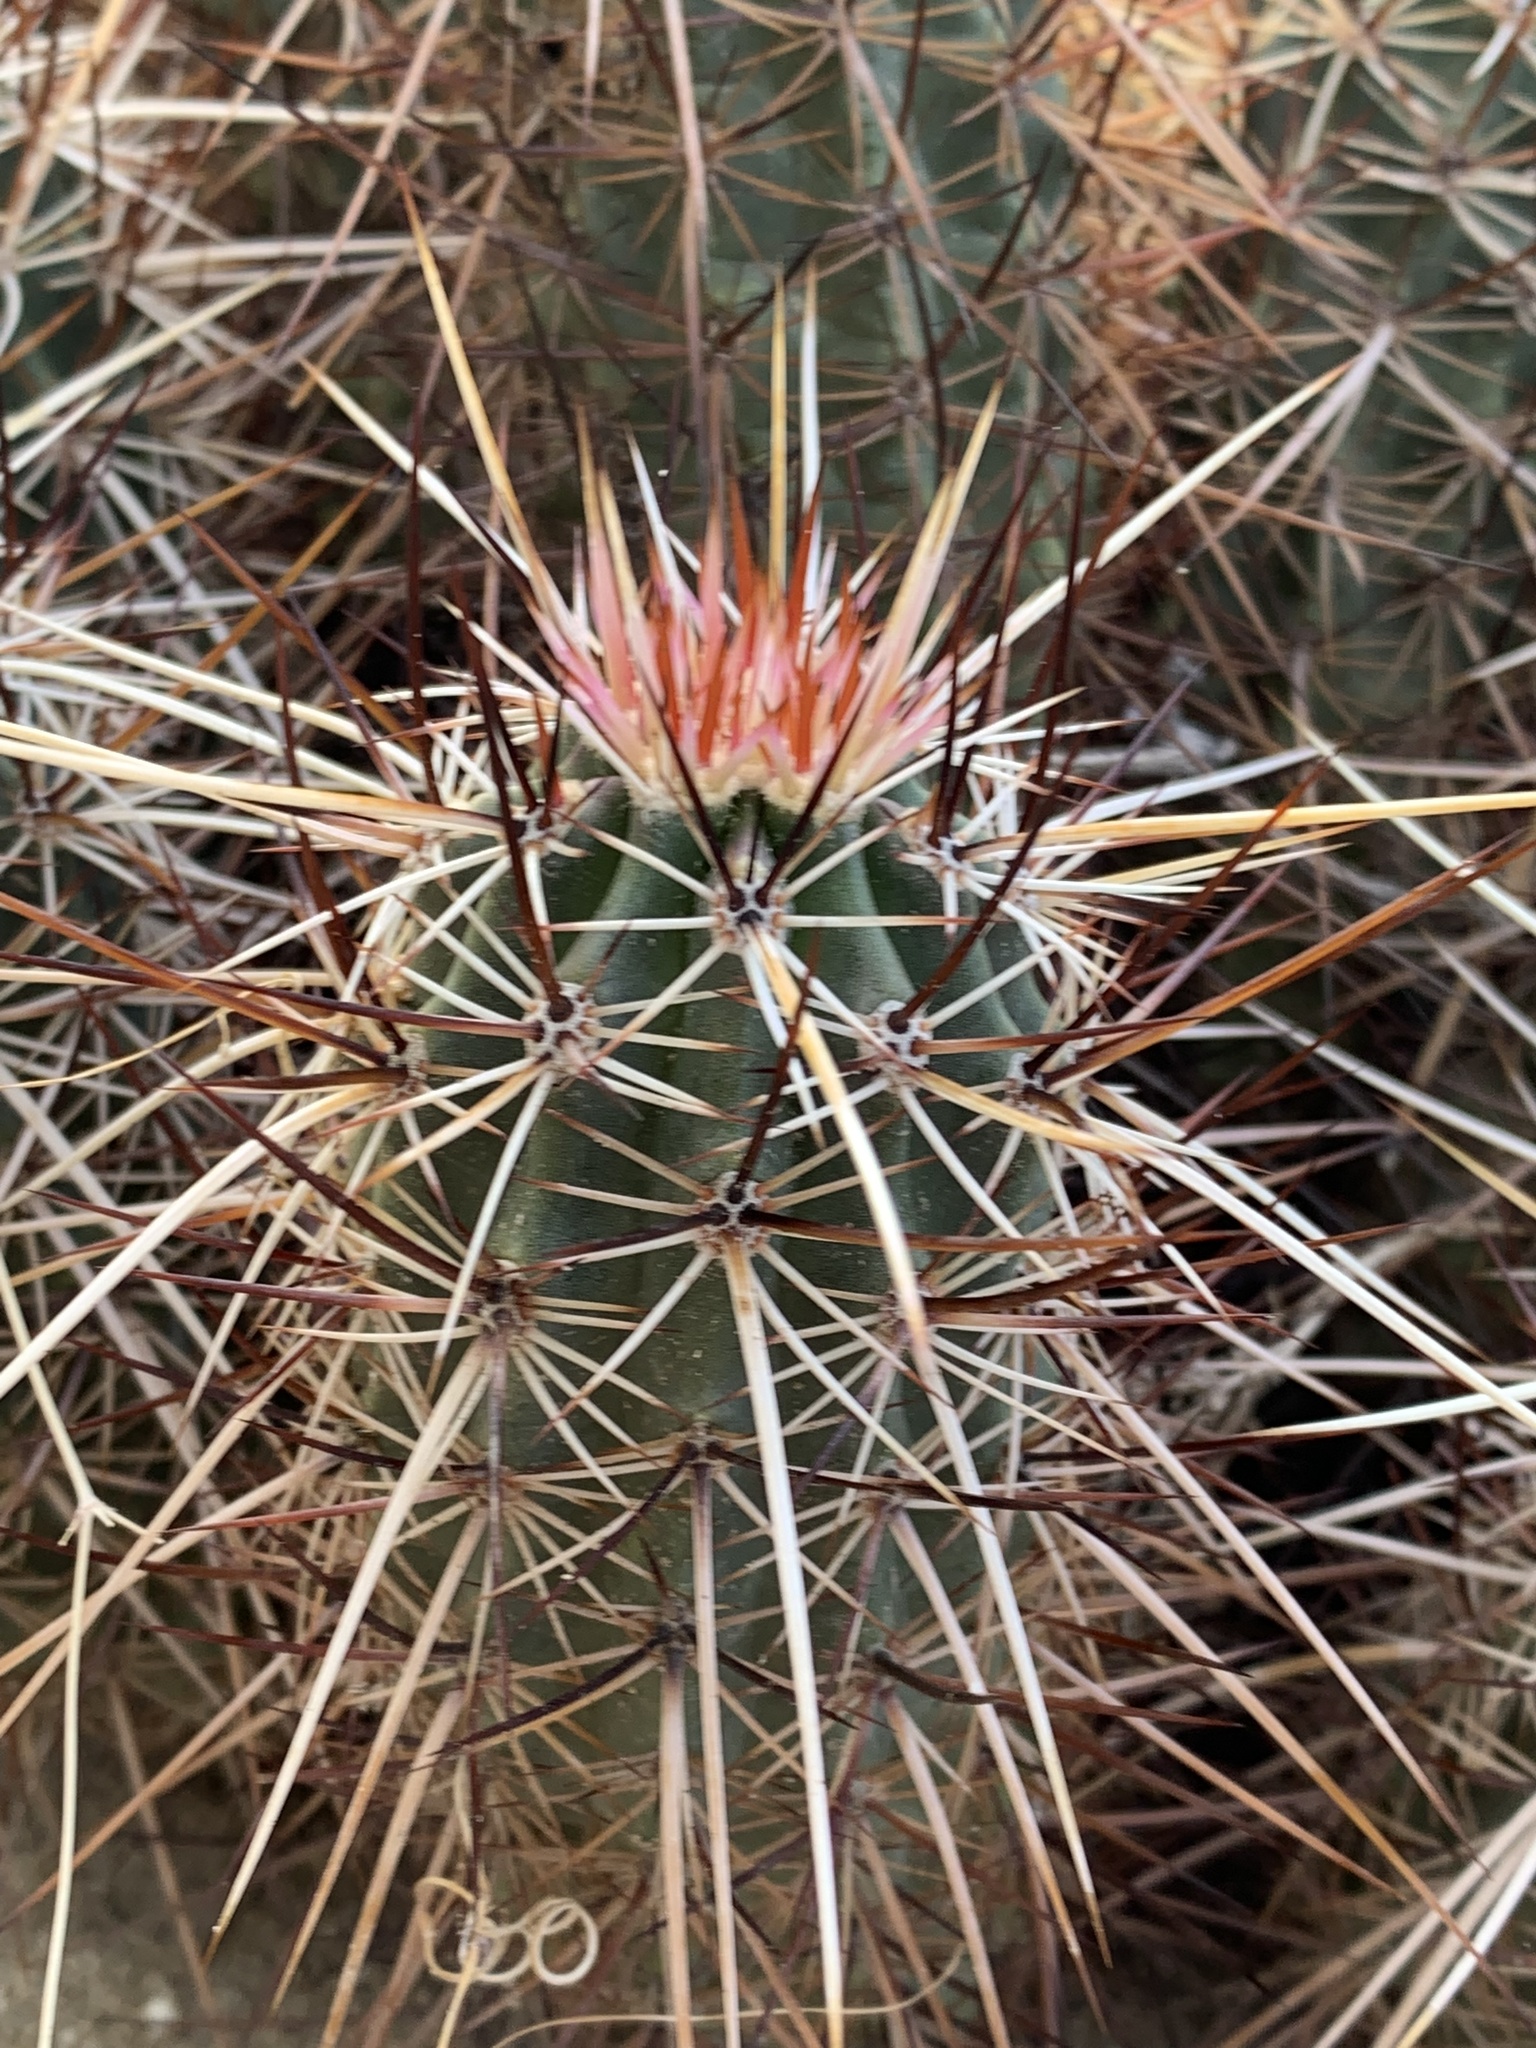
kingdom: Plantae
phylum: Tracheophyta
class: Magnoliopsida
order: Caryophyllales
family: Cactaceae
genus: Echinocereus
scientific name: Echinocereus engelmannii
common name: Engelmann's hedgehog cactus
